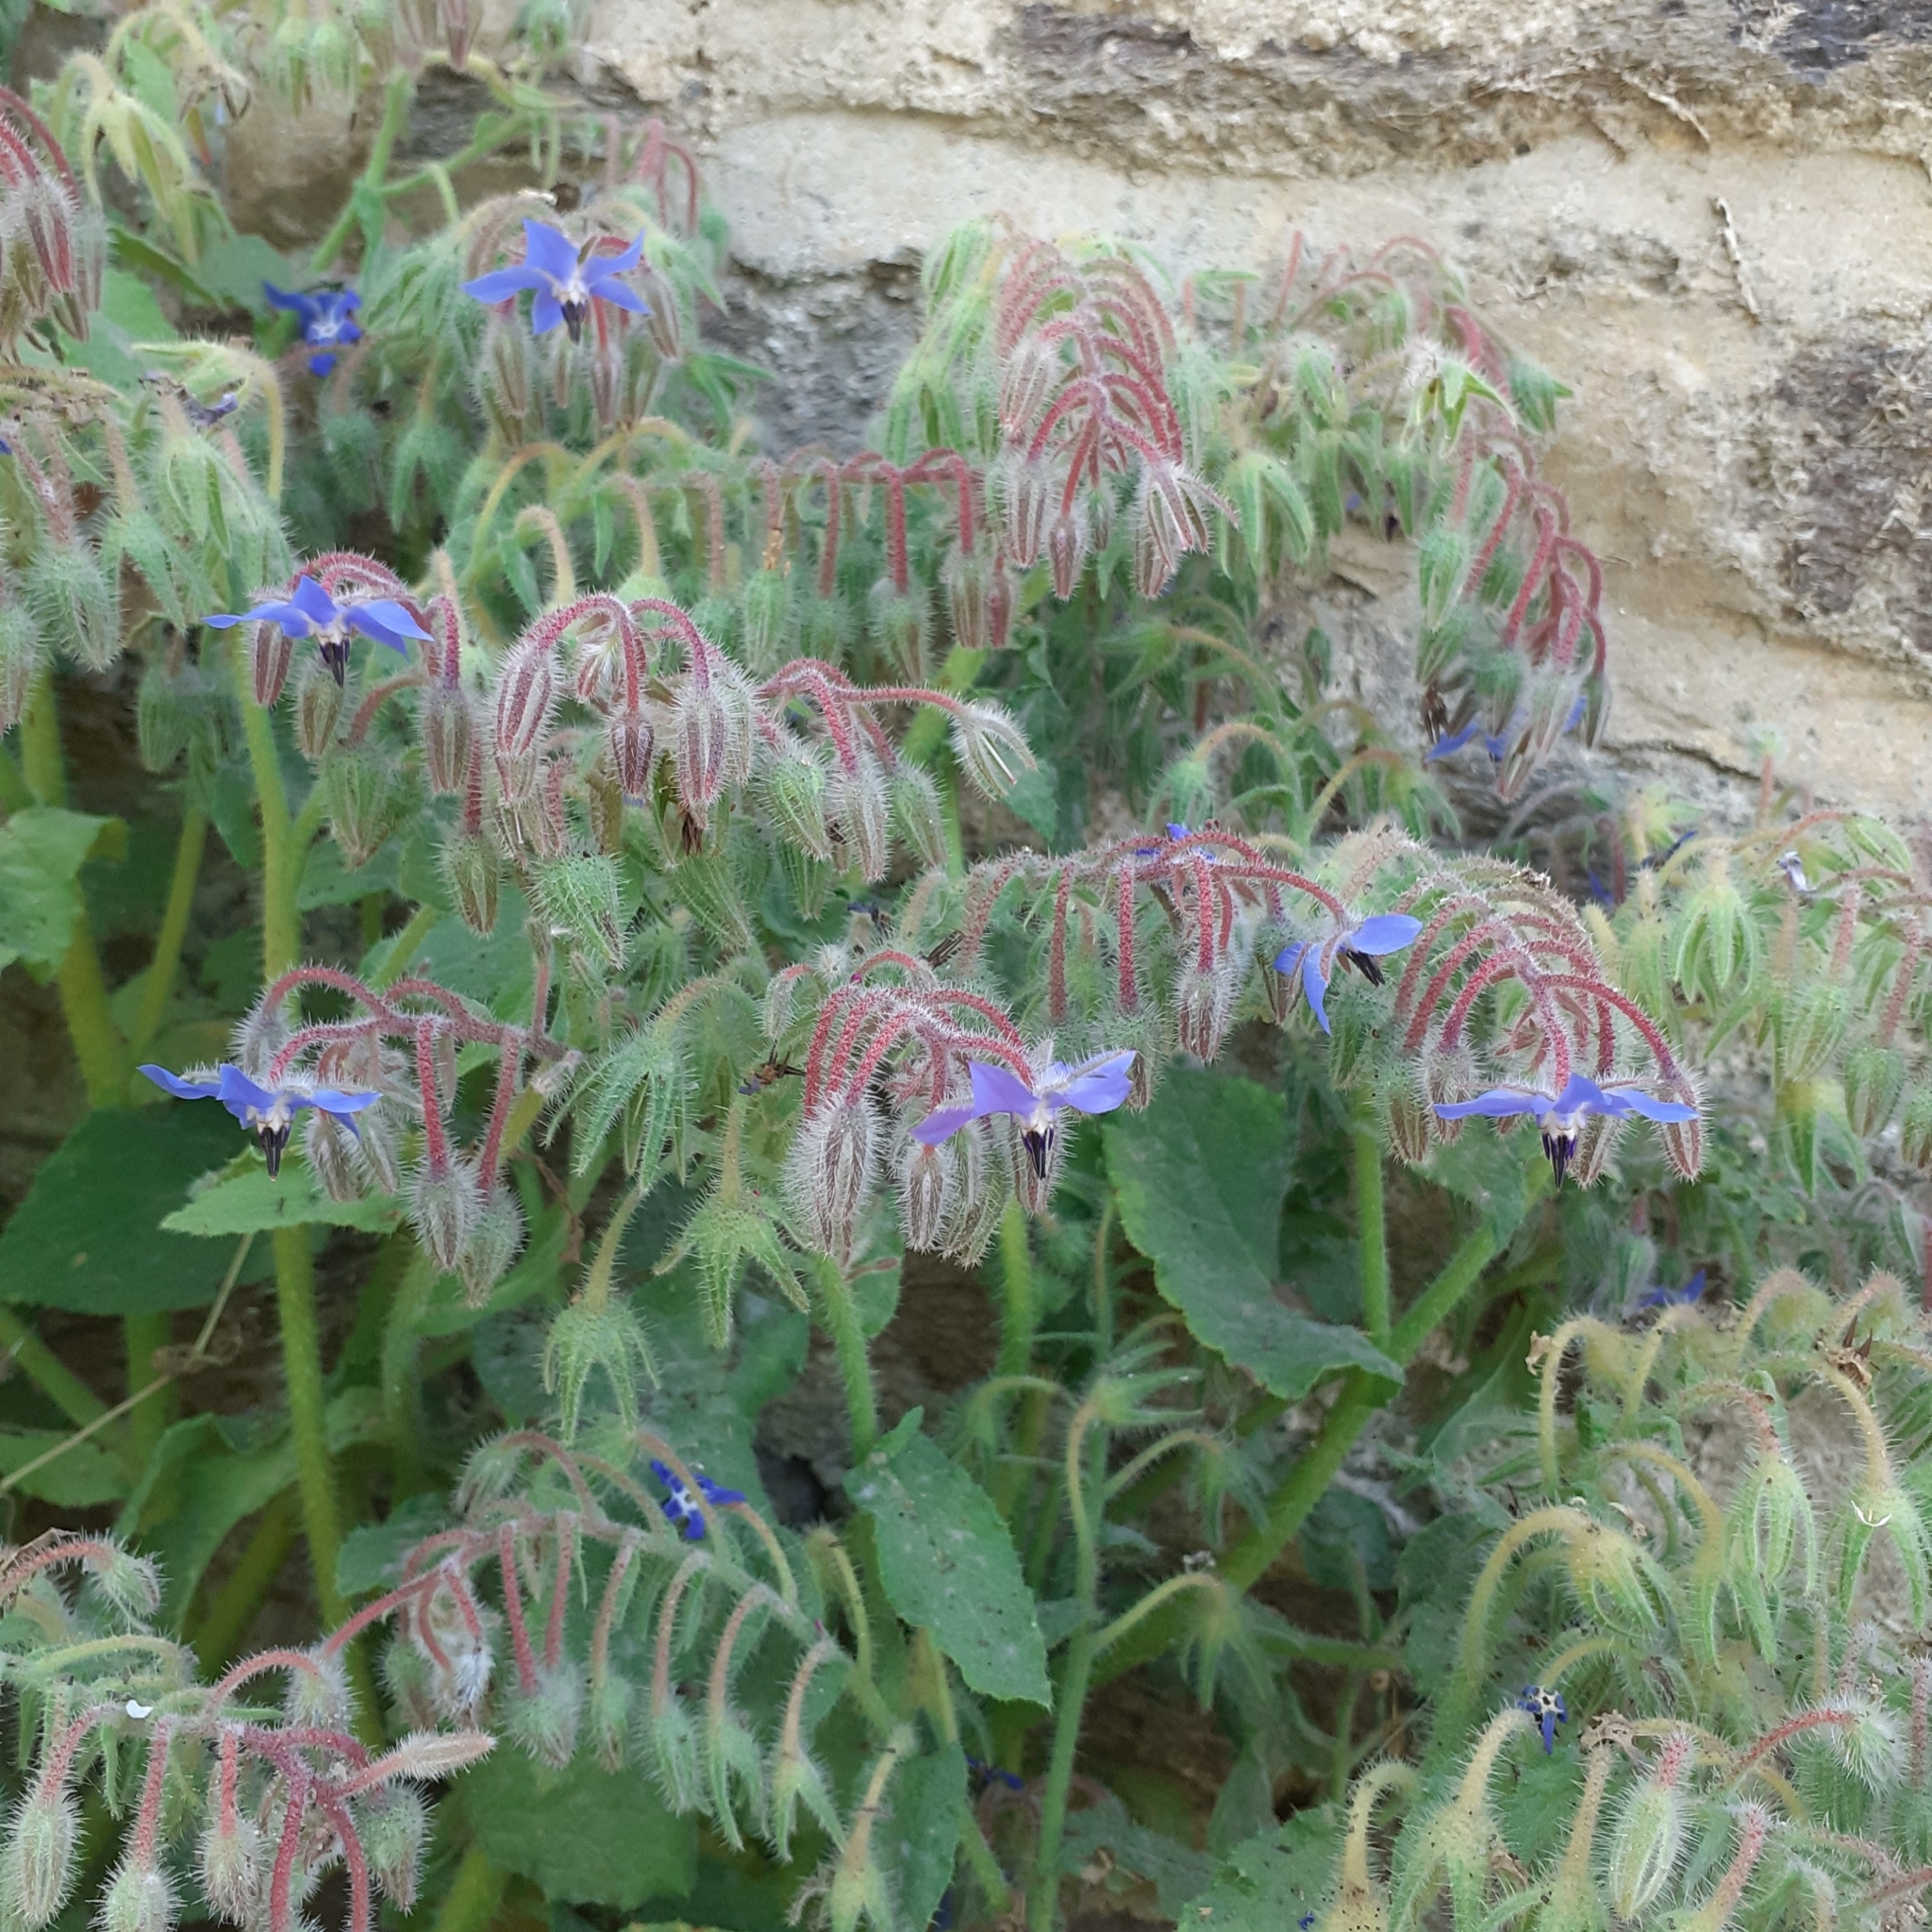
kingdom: Plantae
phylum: Tracheophyta
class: Magnoliopsida
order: Boraginales
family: Boraginaceae
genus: Borago
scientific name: Borago officinalis
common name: Borage
